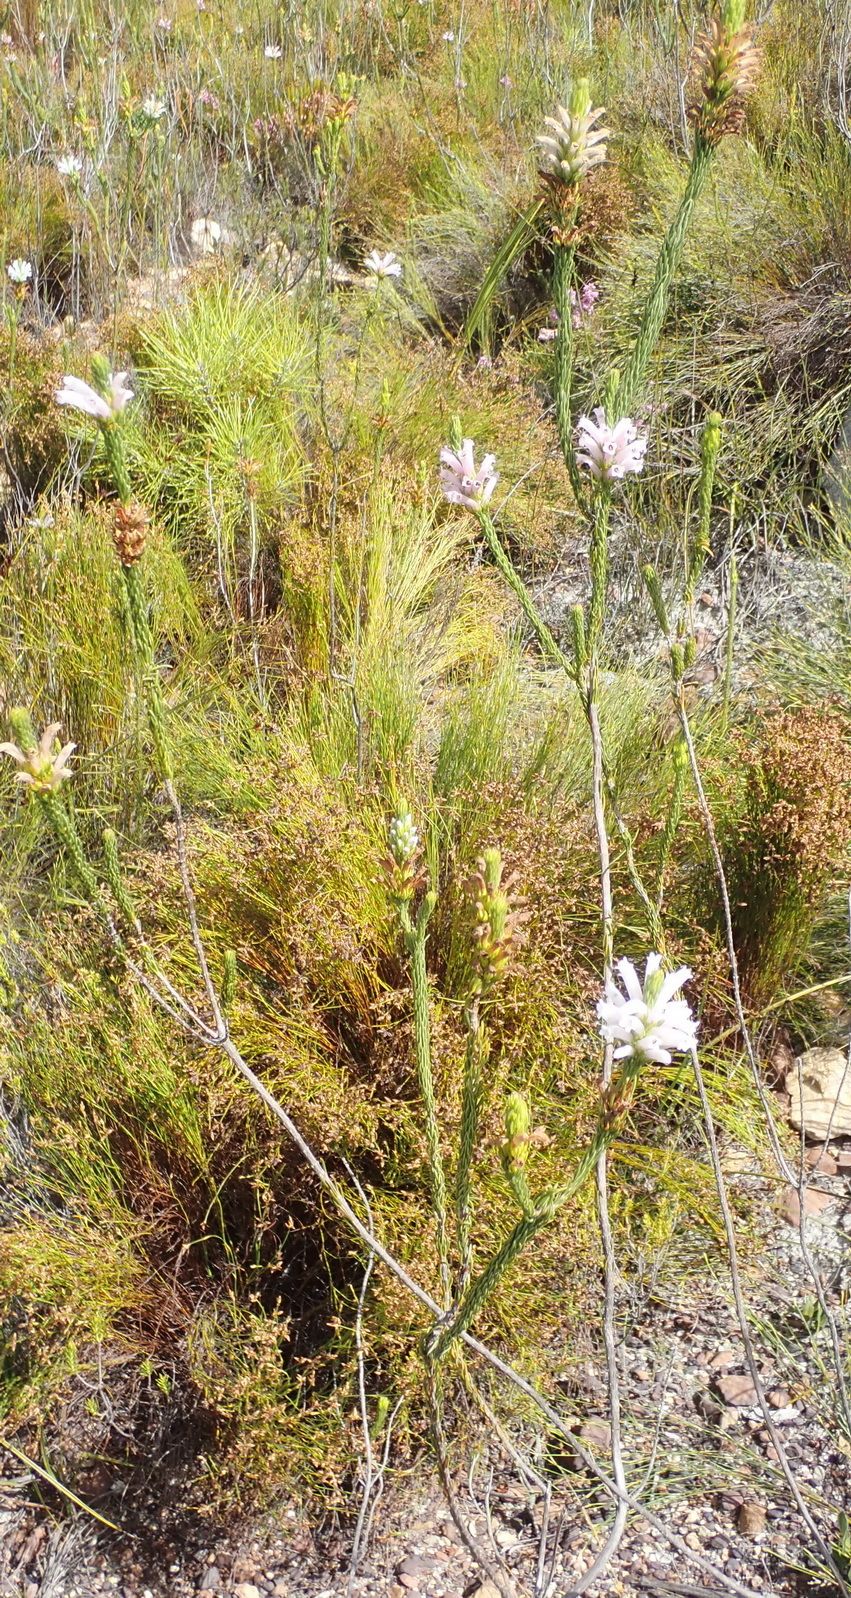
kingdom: Plantae
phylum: Tracheophyta
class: Magnoliopsida
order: Ericales
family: Ericaceae
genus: Erica
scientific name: Erica viscaria
